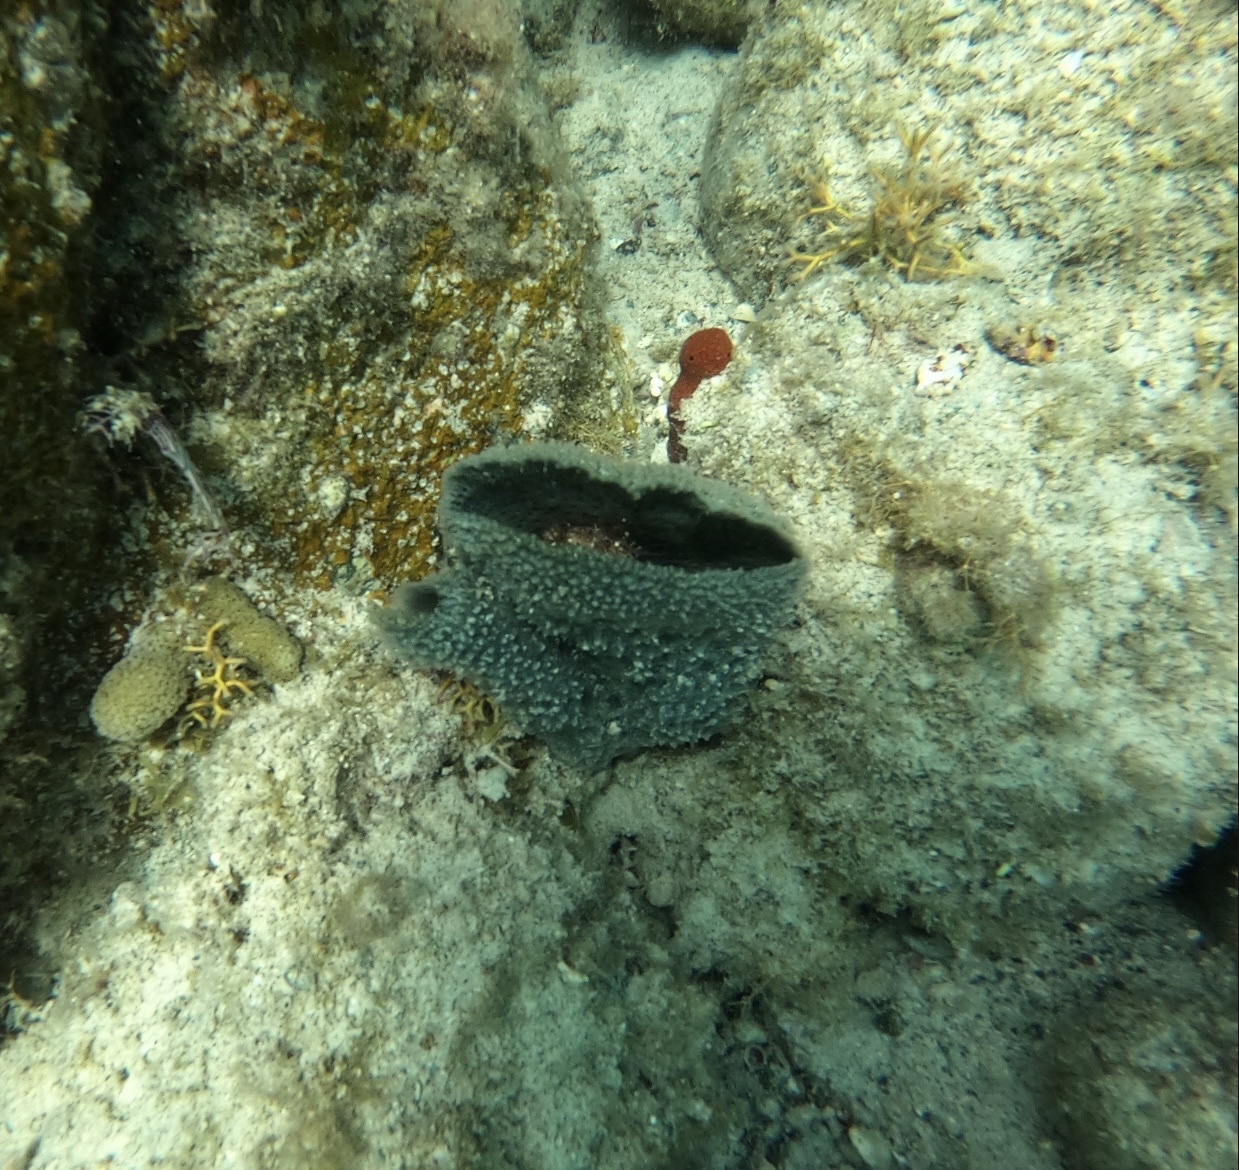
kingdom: Animalia
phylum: Porifera
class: Demospongiae
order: Haplosclerida
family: Niphatidae
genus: Niphates
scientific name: Niphates digitalis
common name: Pink vase sponge
